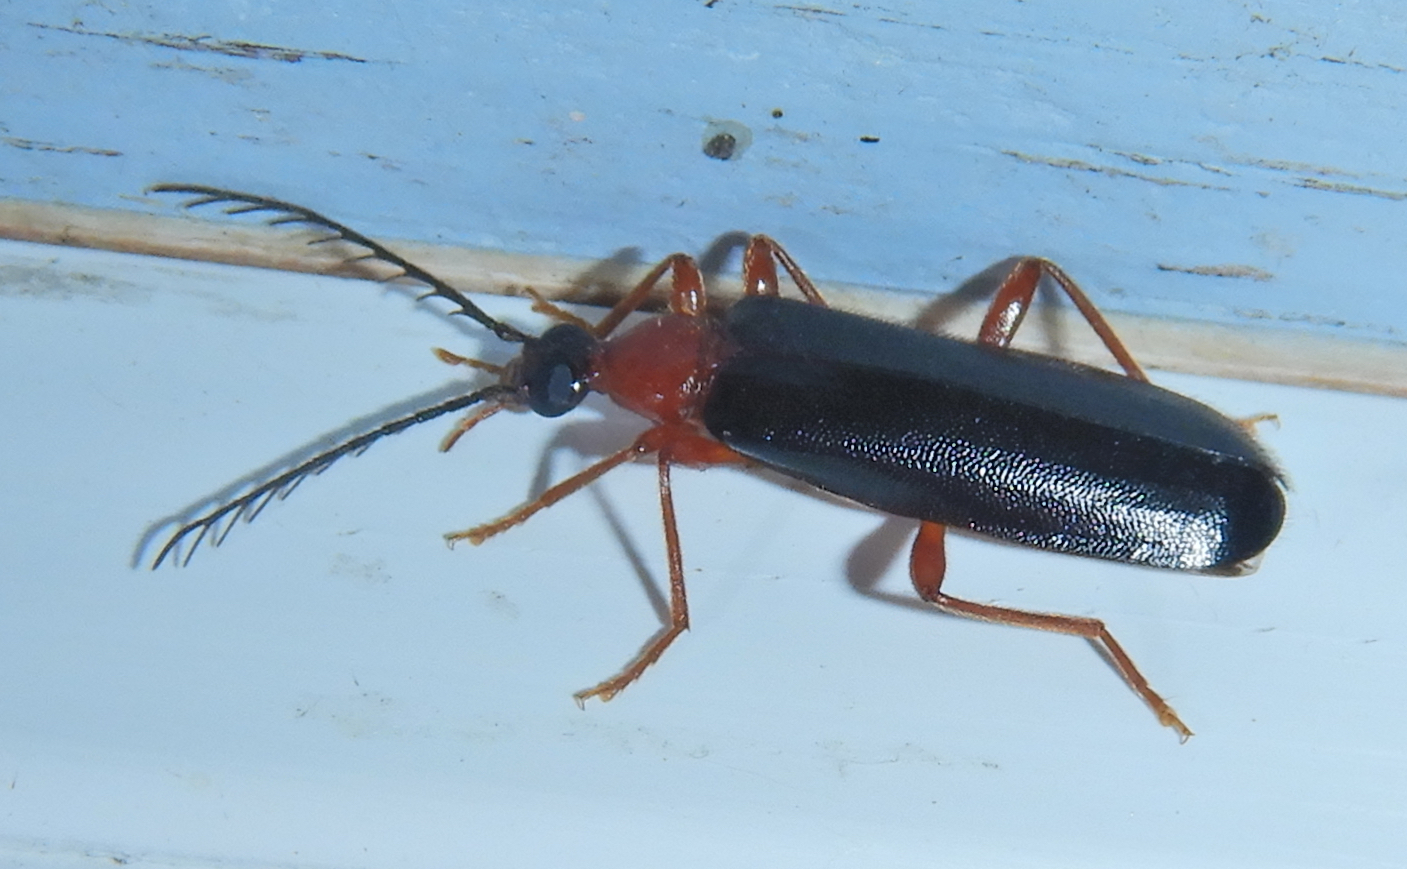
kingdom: Animalia
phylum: Arthropoda
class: Insecta
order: Coleoptera
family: Pyrochroidae
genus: Dendroides
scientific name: Dendroides canadensis
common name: Canada fire-colored beetle
